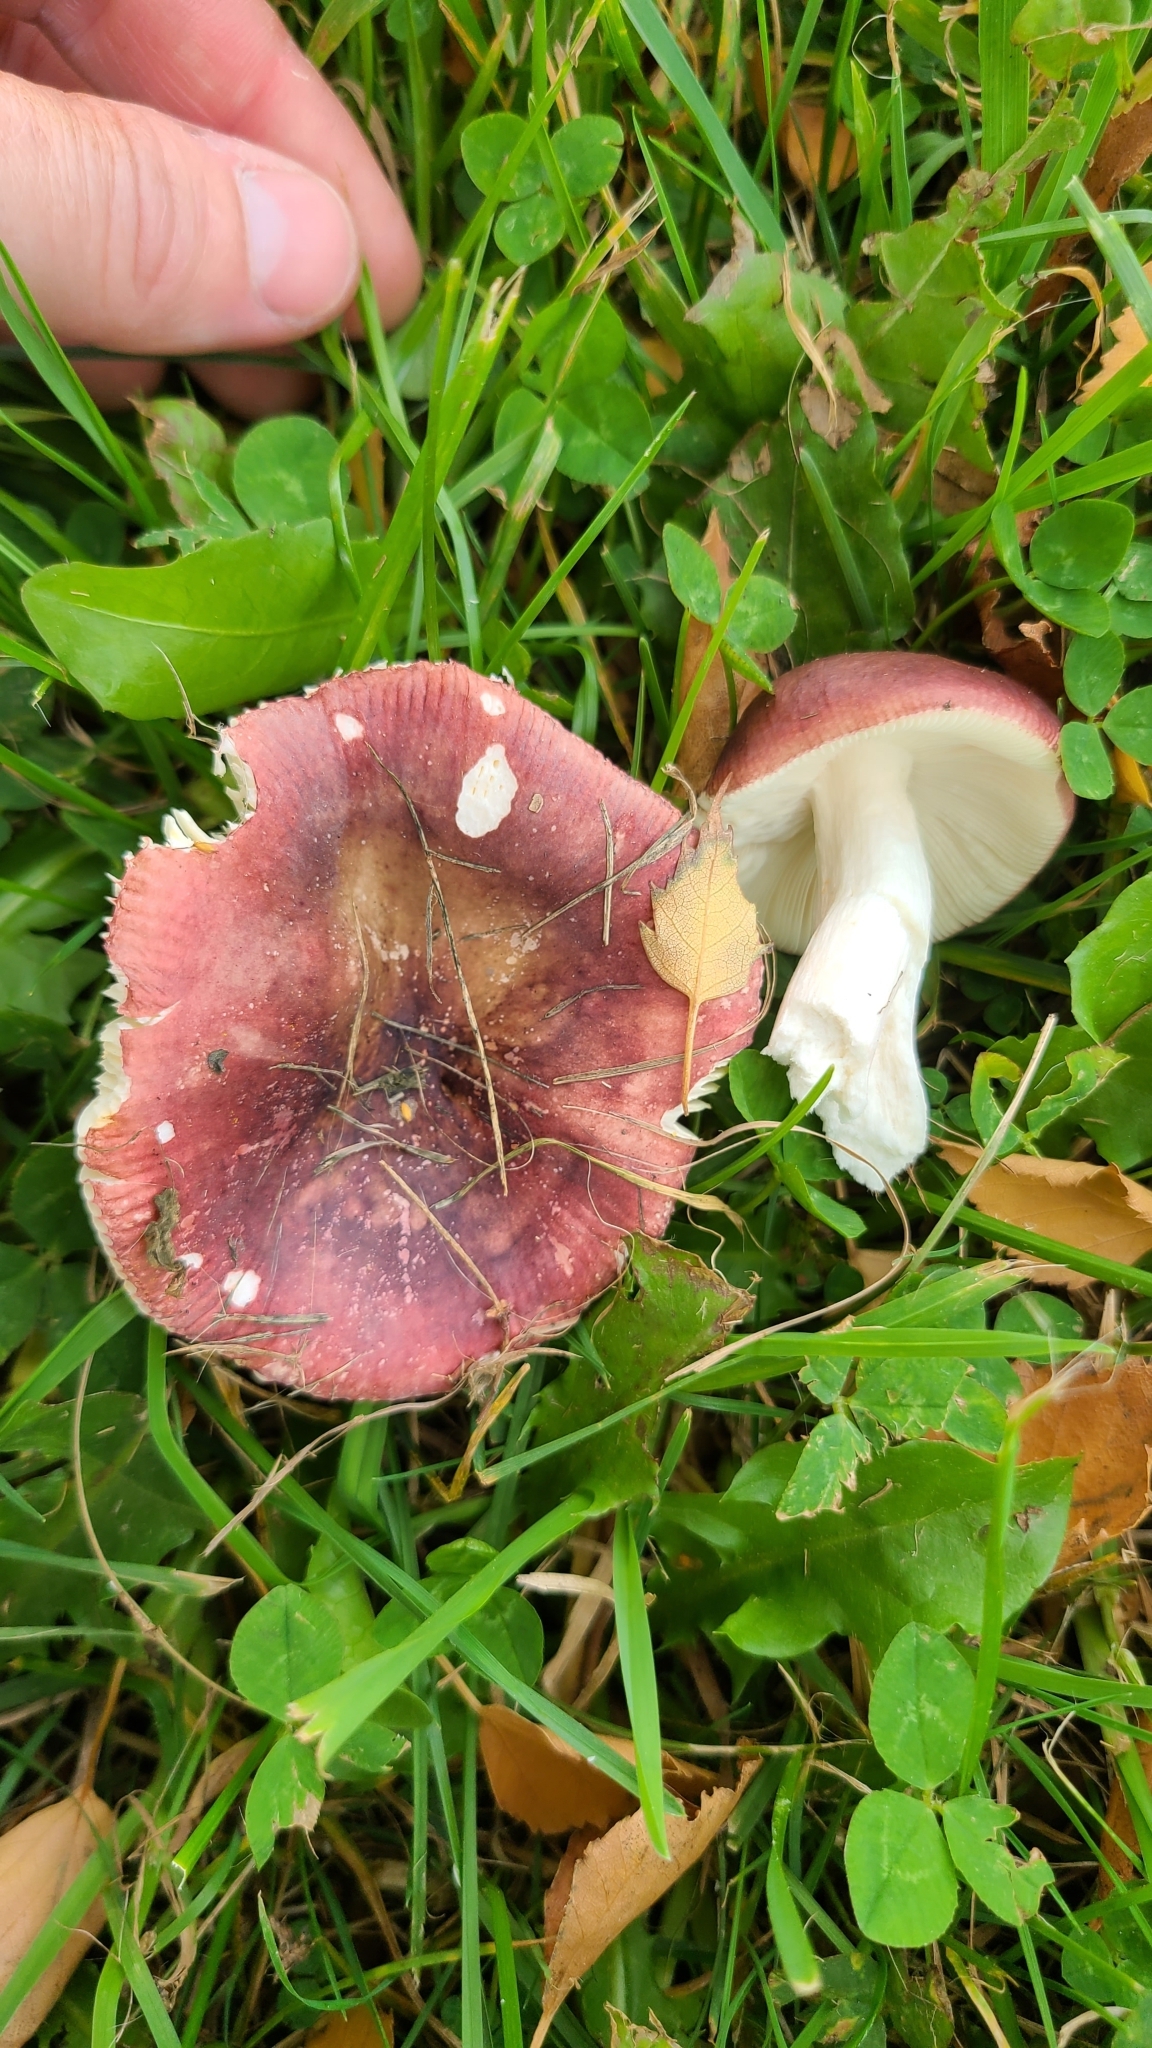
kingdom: Fungi
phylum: Basidiomycota
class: Agaricomycetes
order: Russulales
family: Russulaceae
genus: Russula
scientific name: Russula nitida
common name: Purple swamp brittlegill
